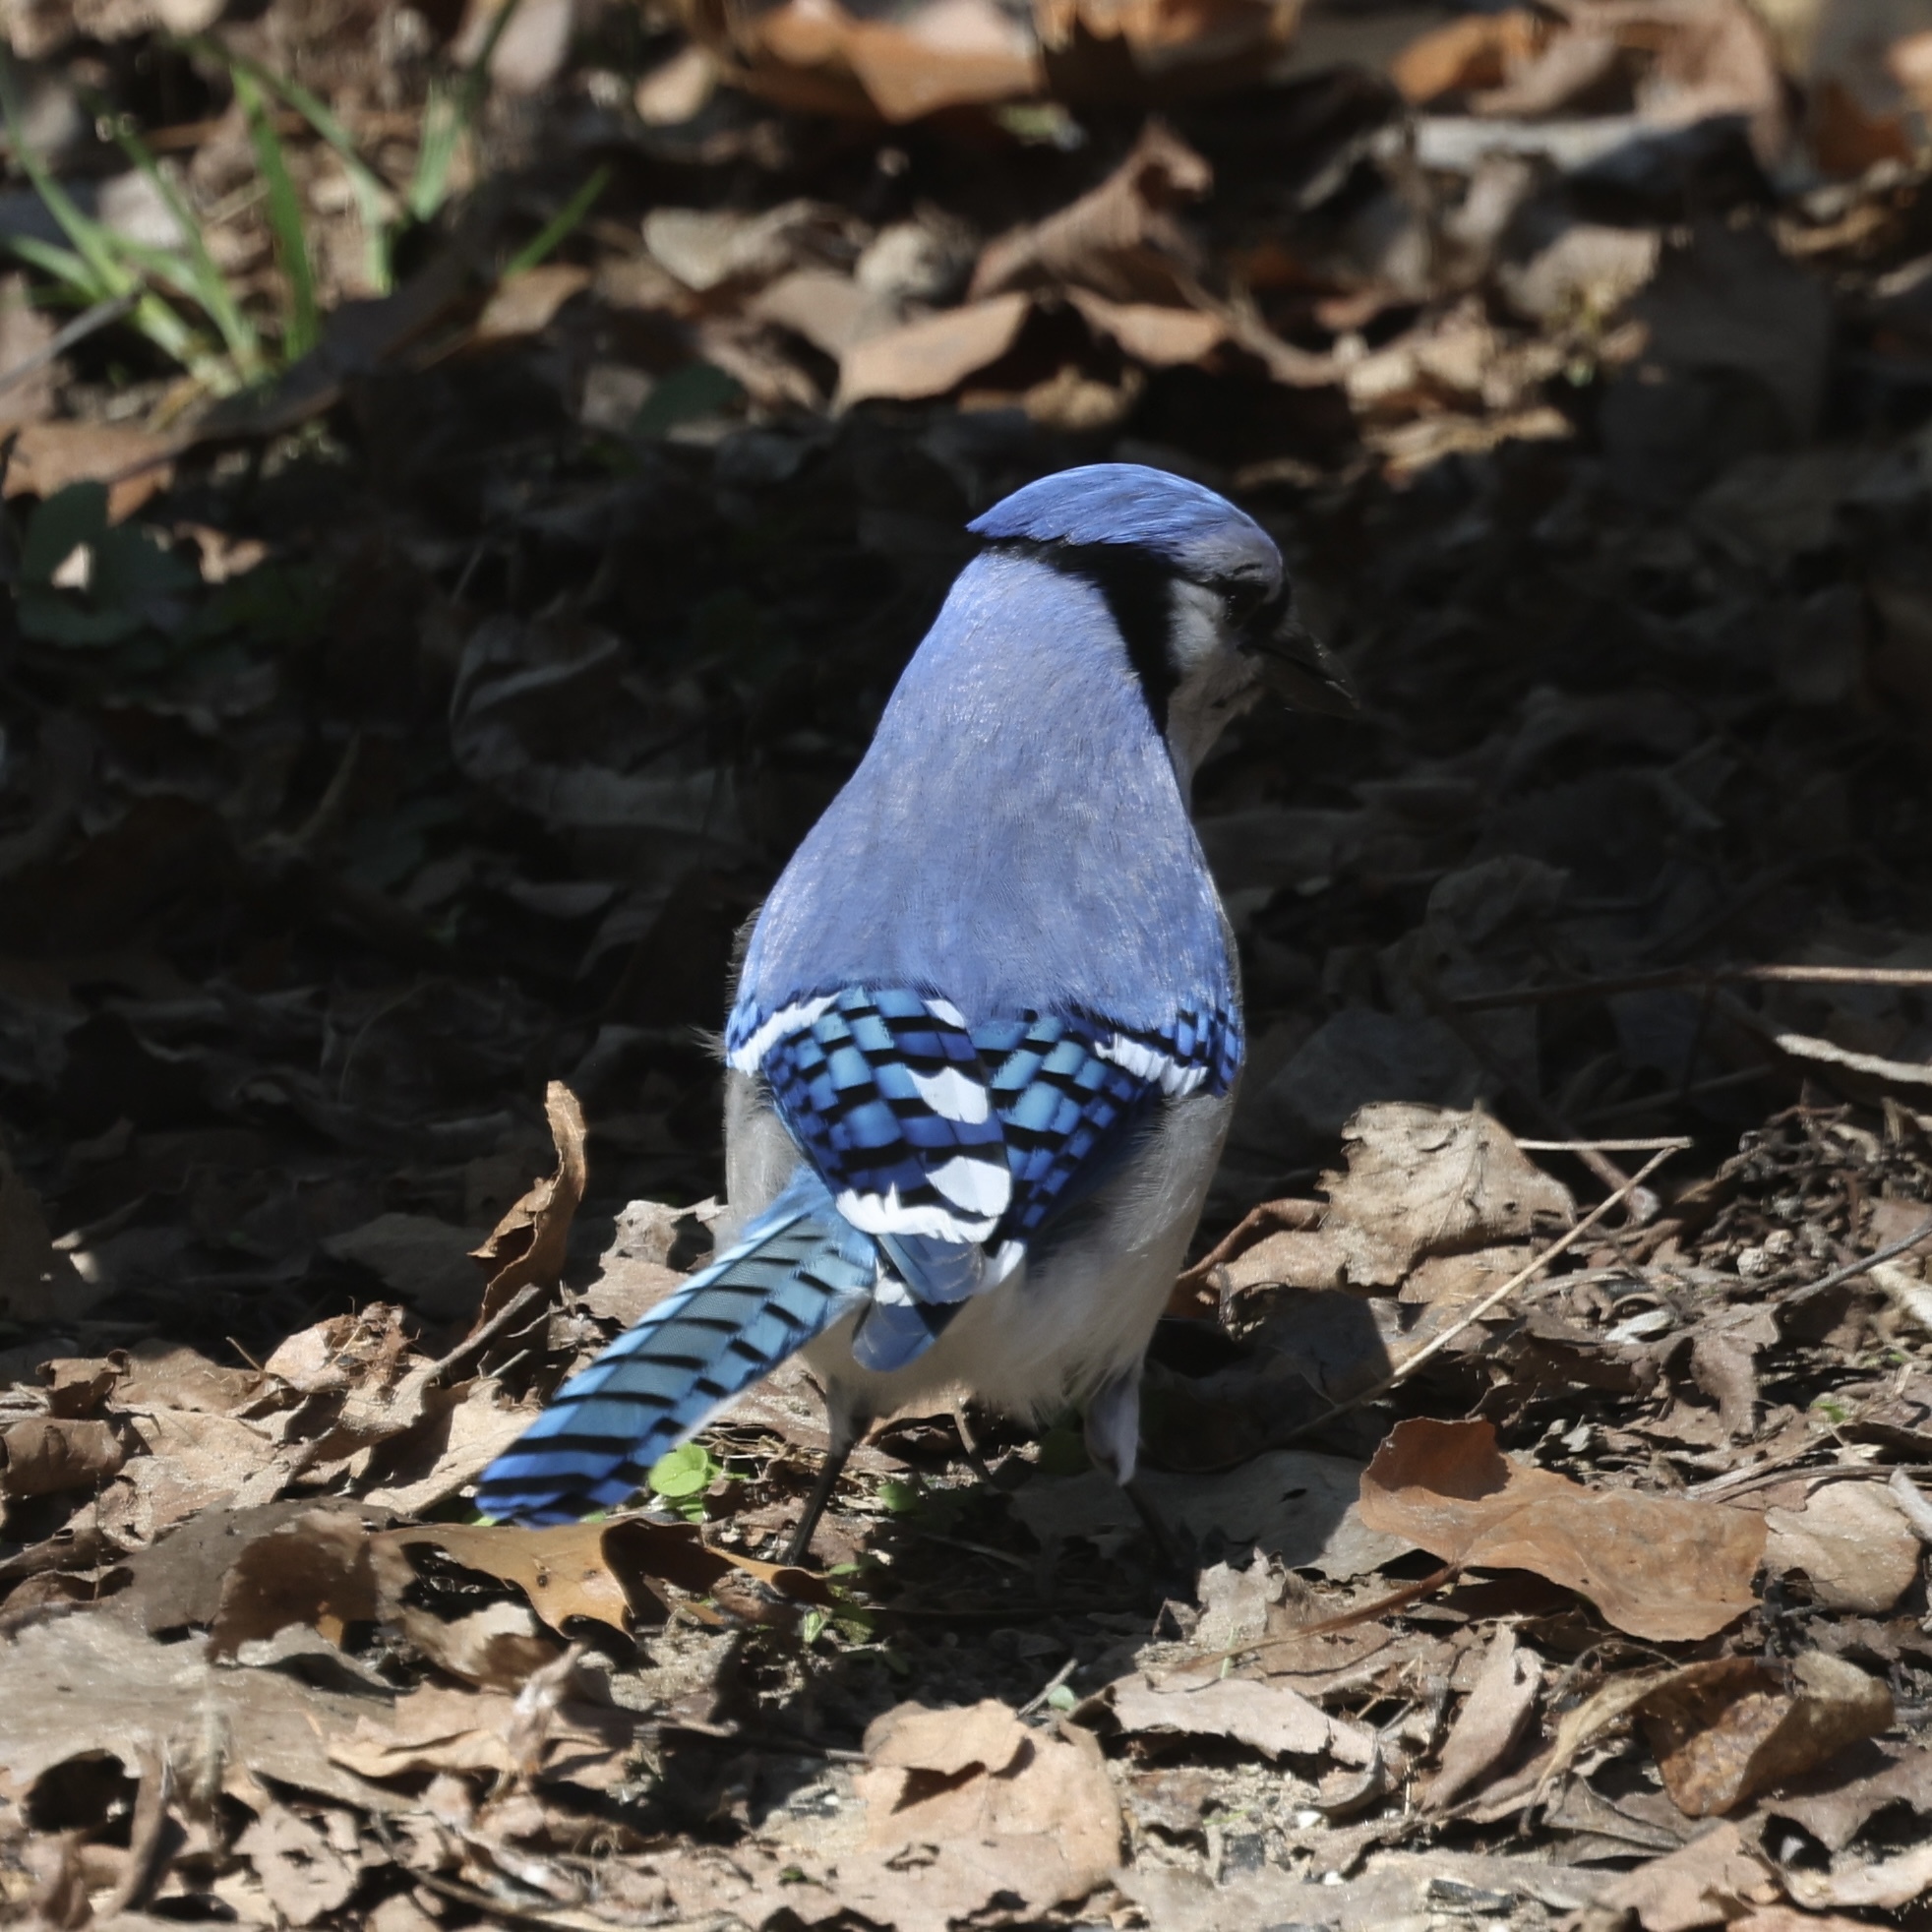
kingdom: Animalia
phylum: Chordata
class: Aves
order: Passeriformes
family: Corvidae
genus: Cyanocitta
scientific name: Cyanocitta cristata
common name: Blue jay
